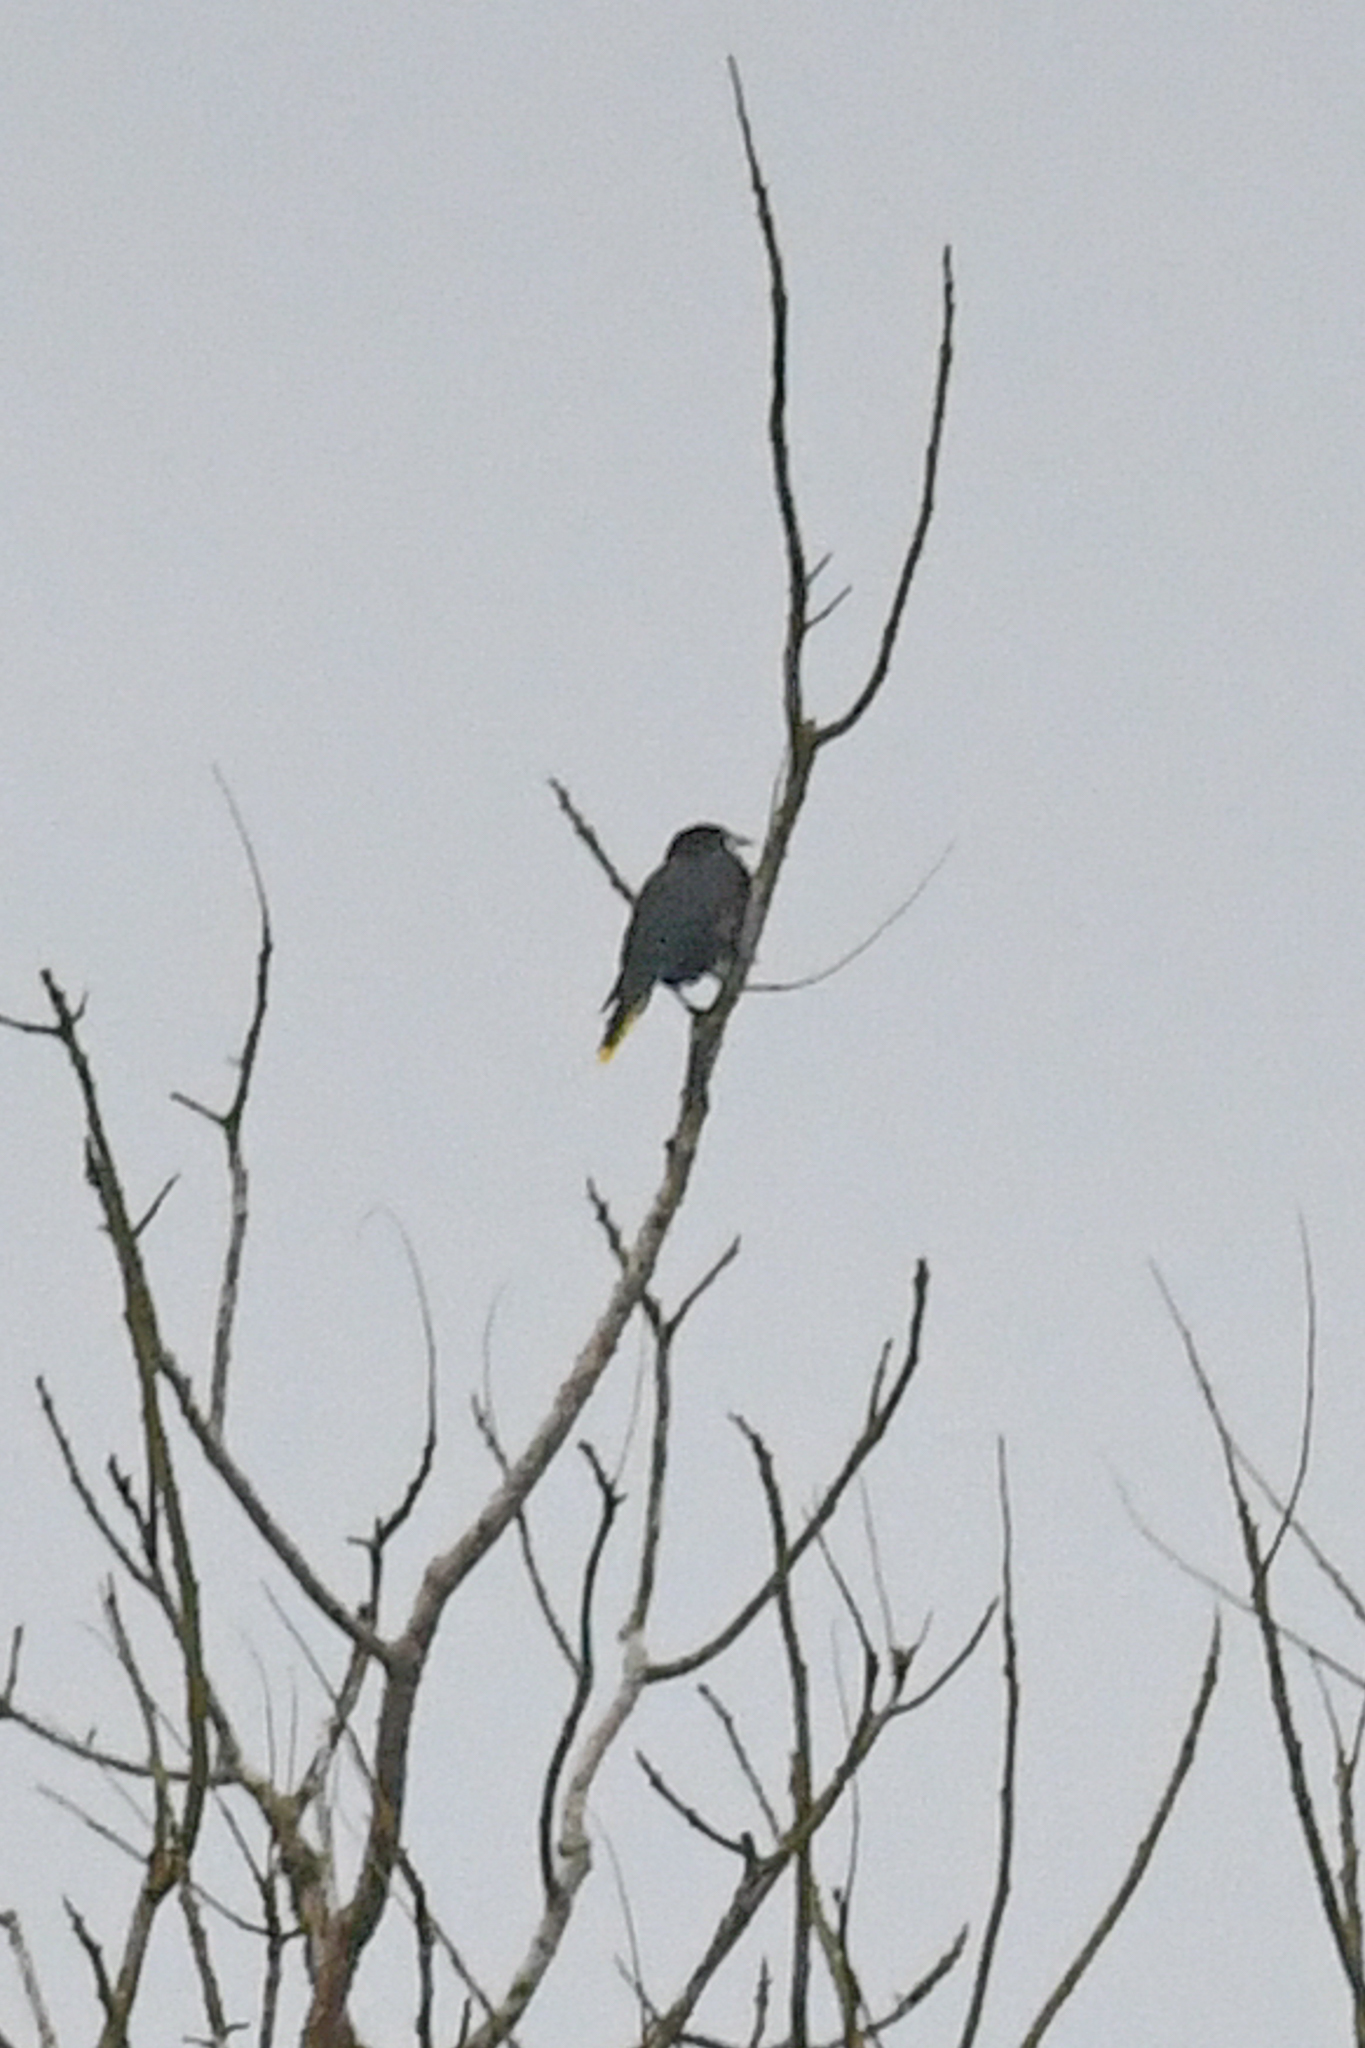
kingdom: Animalia
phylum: Chordata
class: Aves
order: Passeriformes
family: Icteridae
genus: Psarocolius
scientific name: Psarocolius wagleri
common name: Chestnut-headed oropendola
